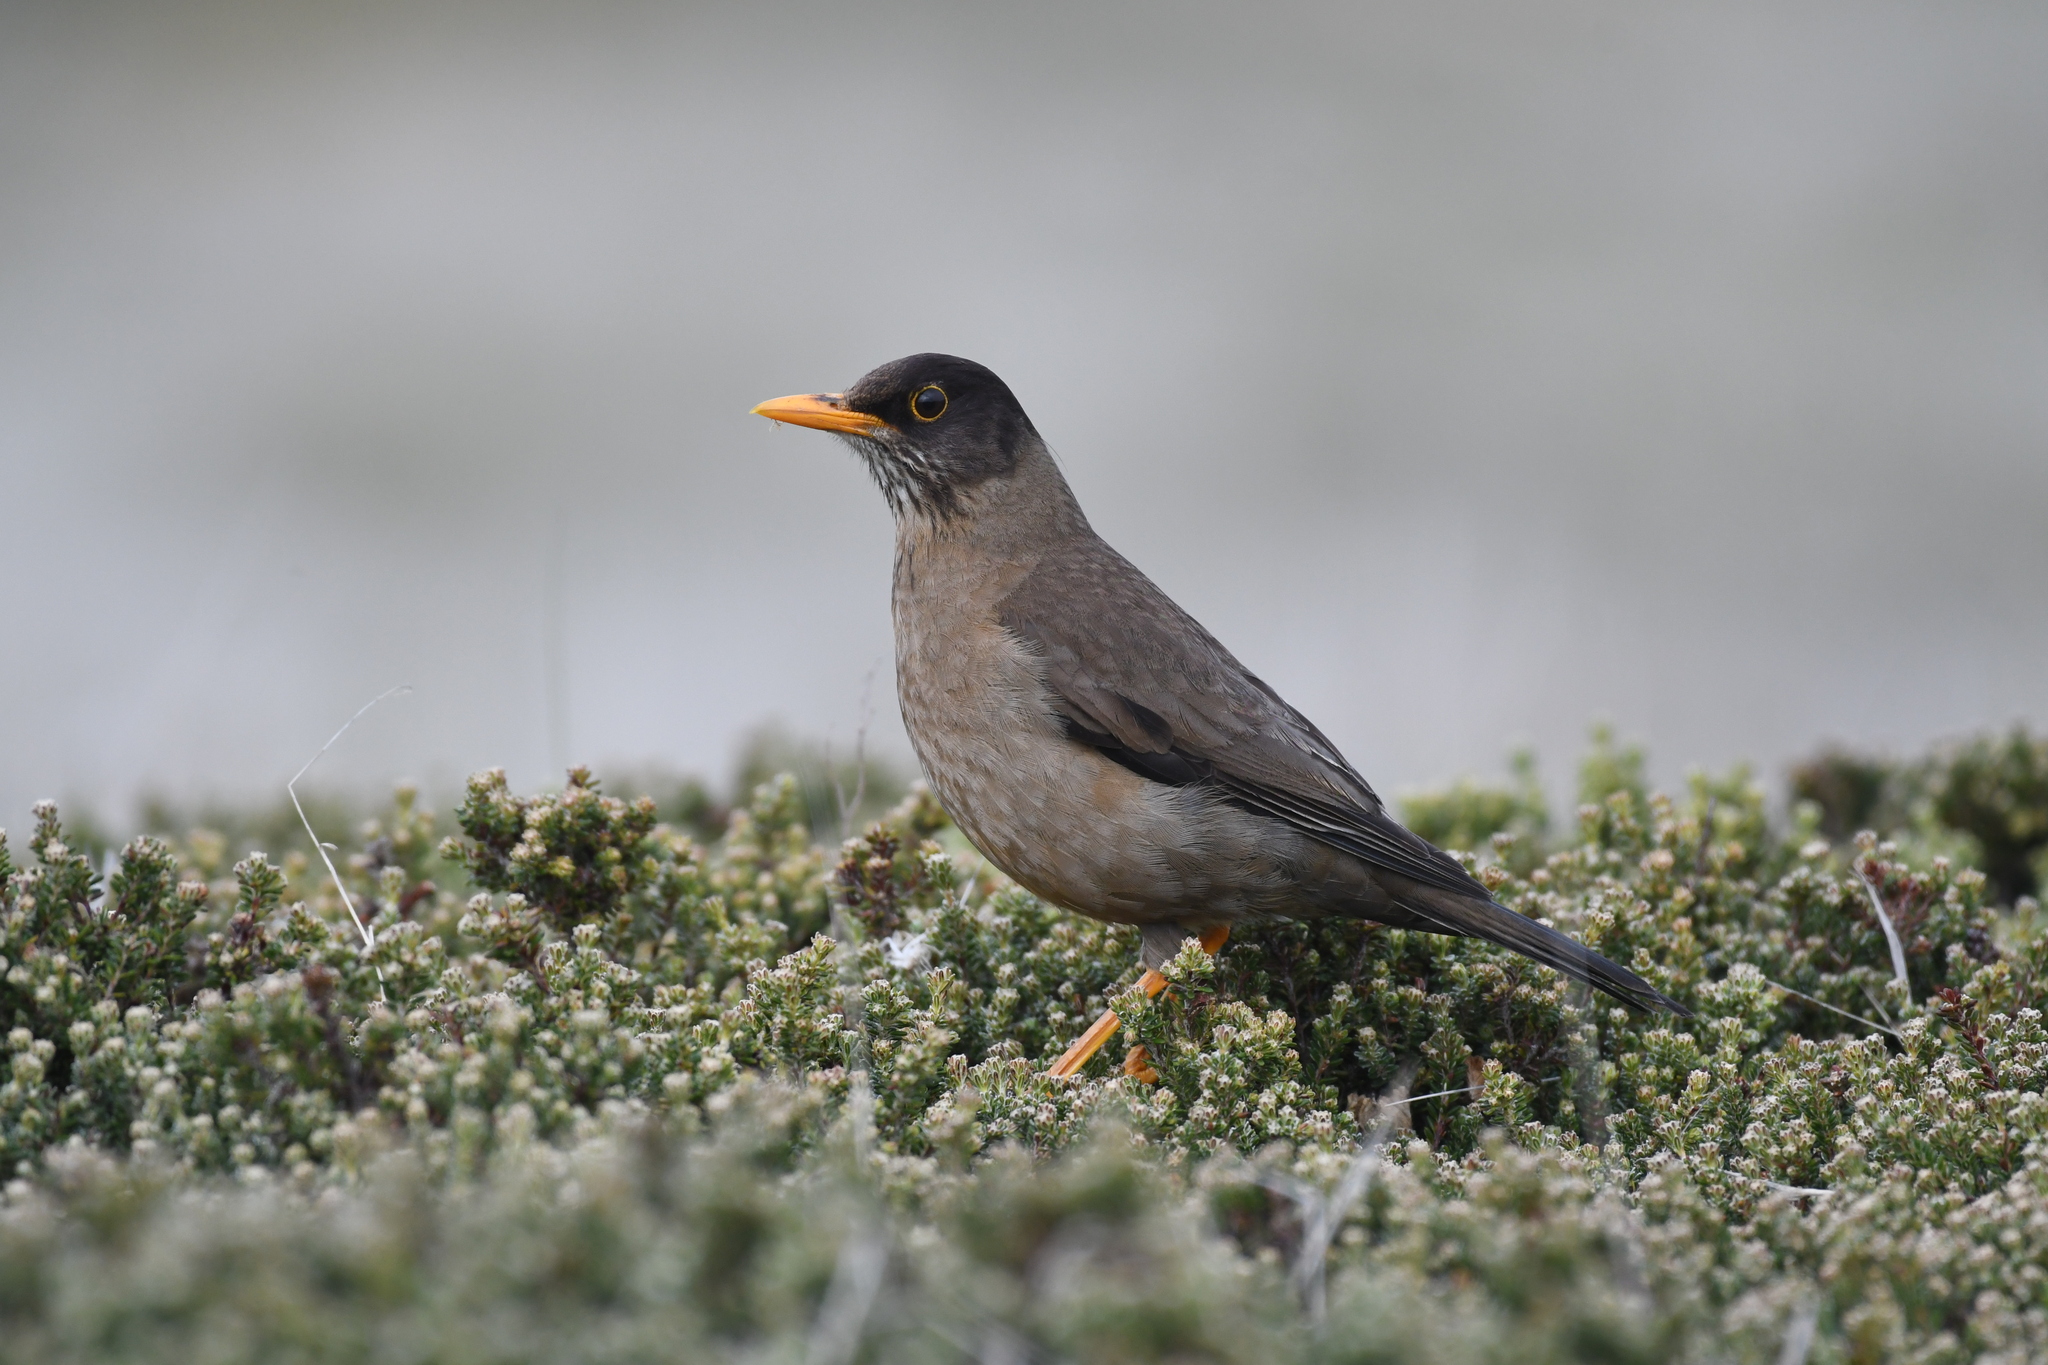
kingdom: Animalia
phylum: Chordata
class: Aves
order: Passeriformes
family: Turdidae
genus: Turdus
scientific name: Turdus falcklandii
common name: Austral thrush
